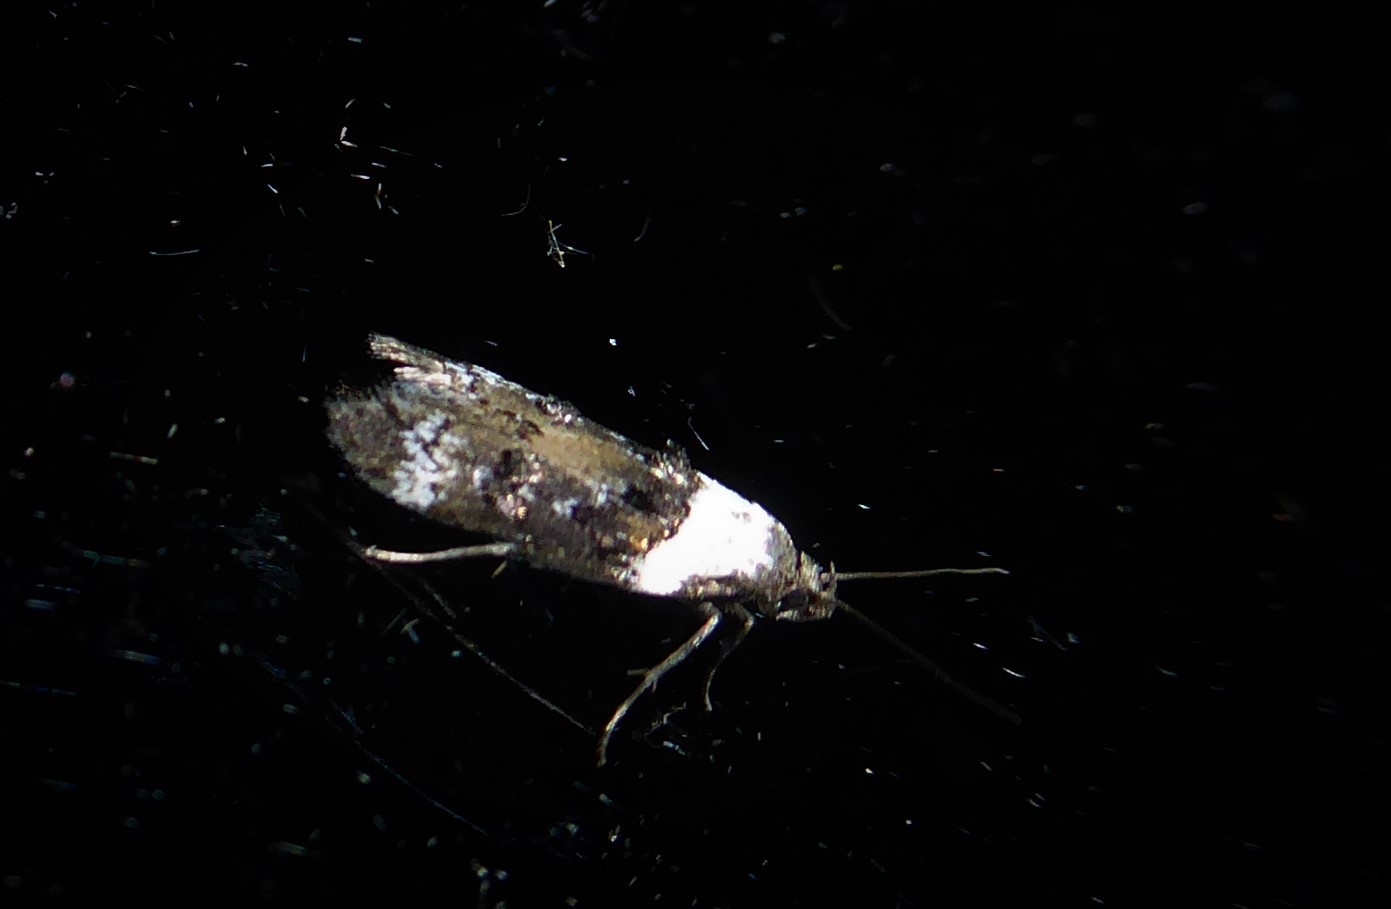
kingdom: Animalia
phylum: Arthropoda
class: Insecta
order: Lepidoptera
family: Oecophoridae
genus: Trachypepla
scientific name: Trachypepla conspicuella
